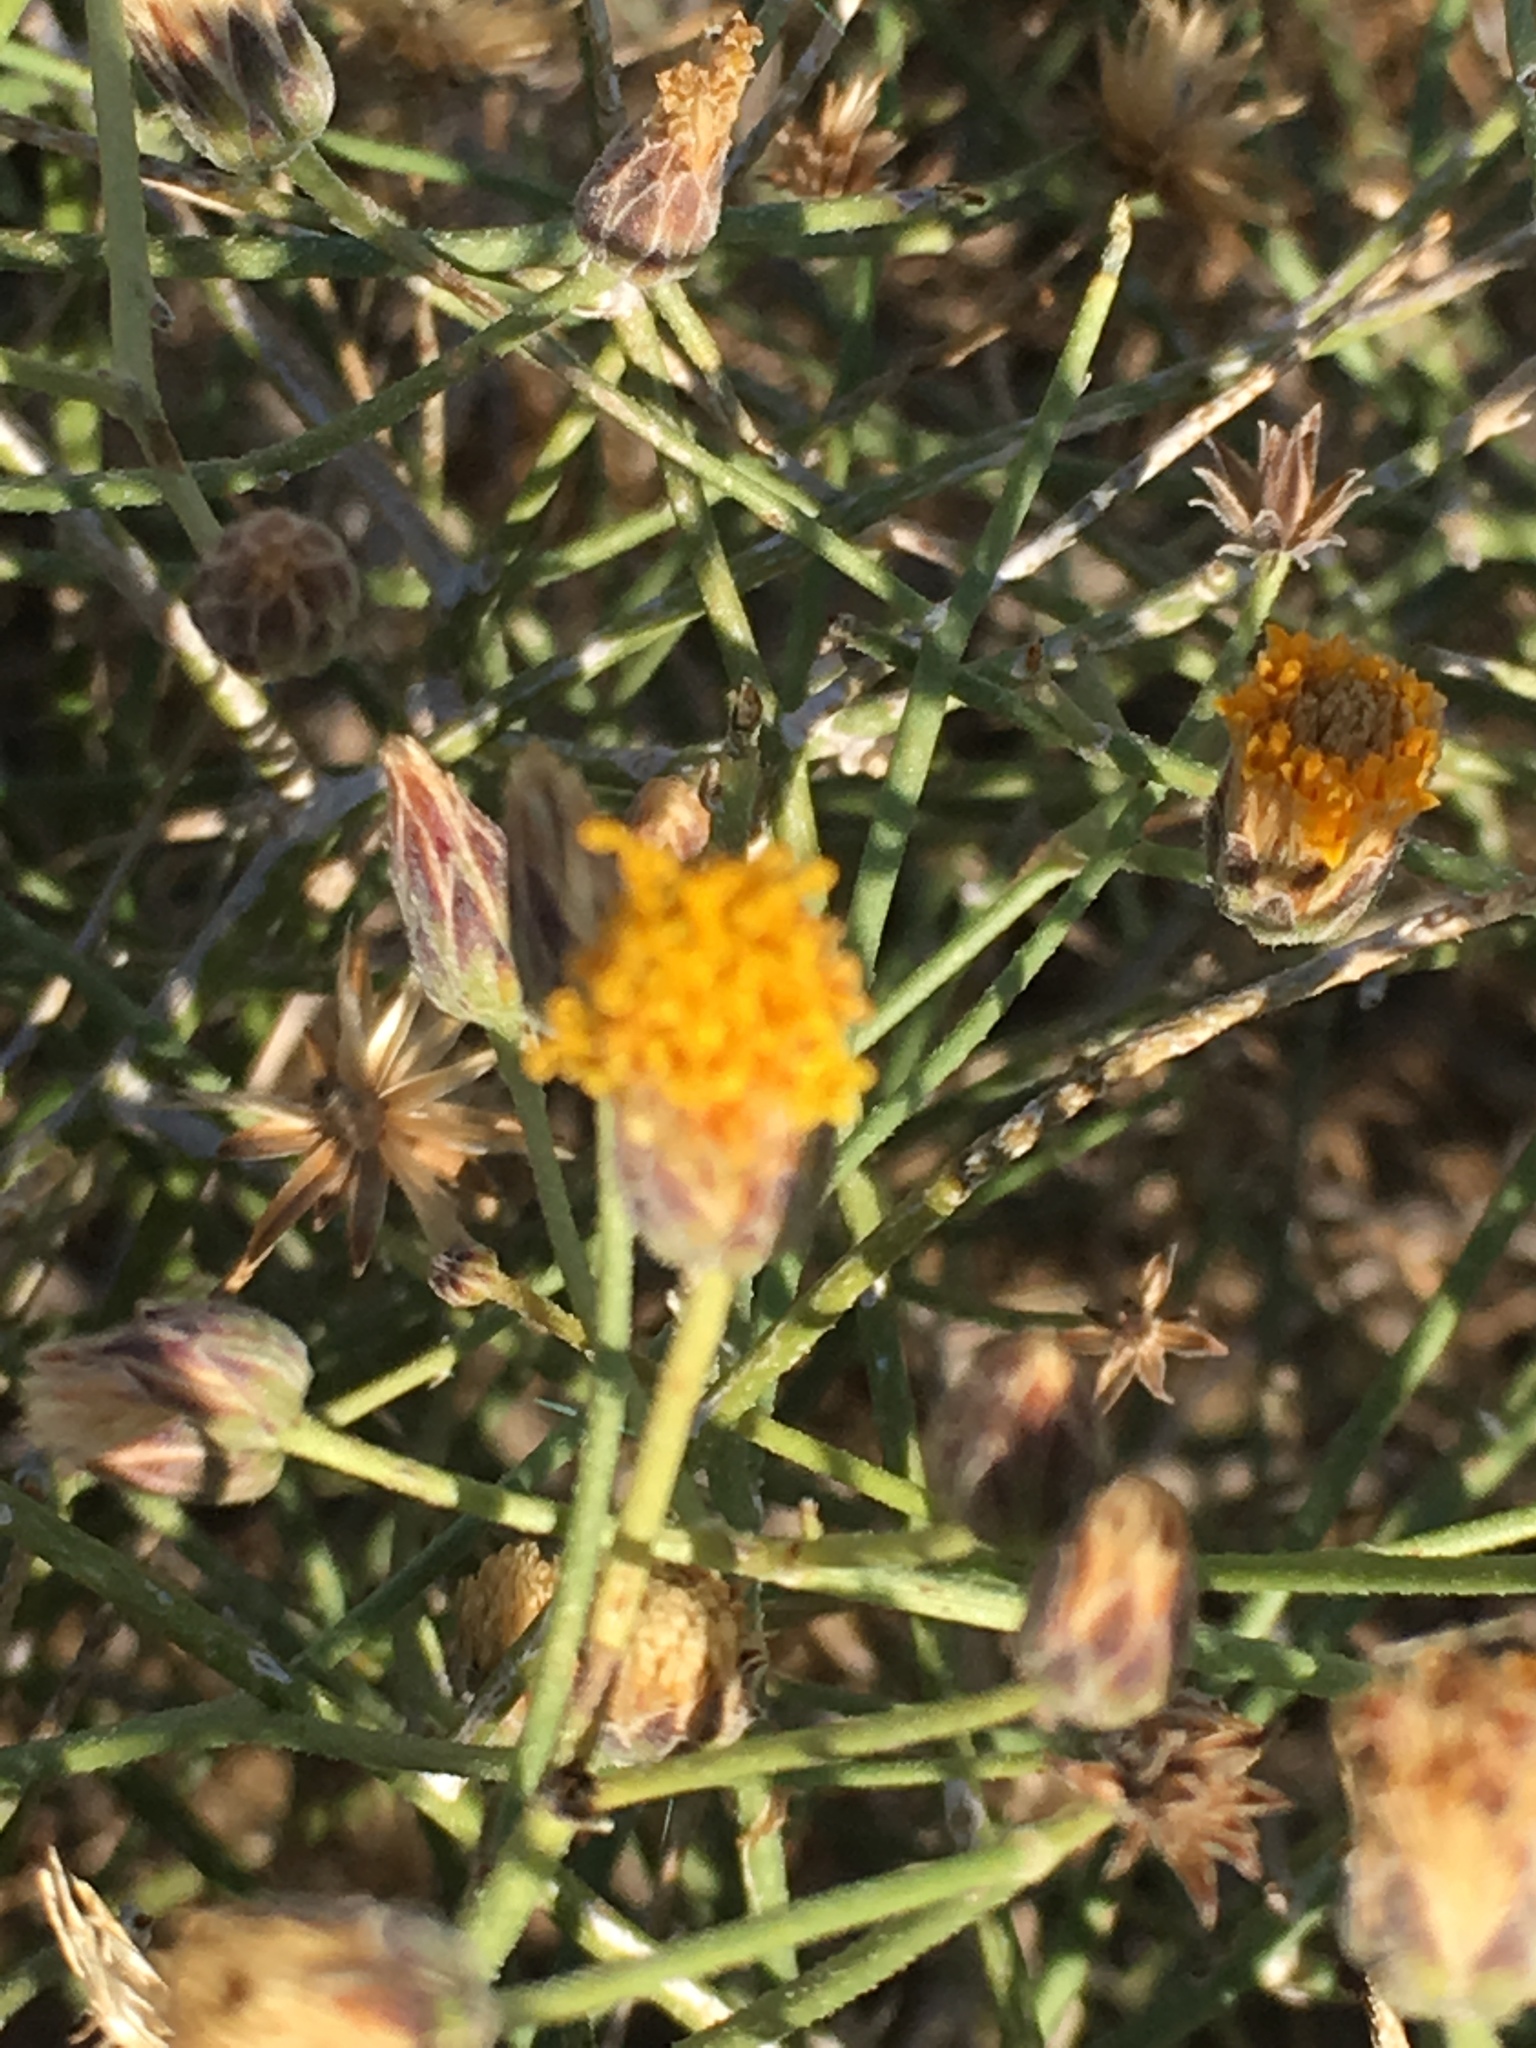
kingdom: Plantae
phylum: Tracheophyta
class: Magnoliopsida
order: Asterales
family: Asteraceae
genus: Bebbia
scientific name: Bebbia juncea
